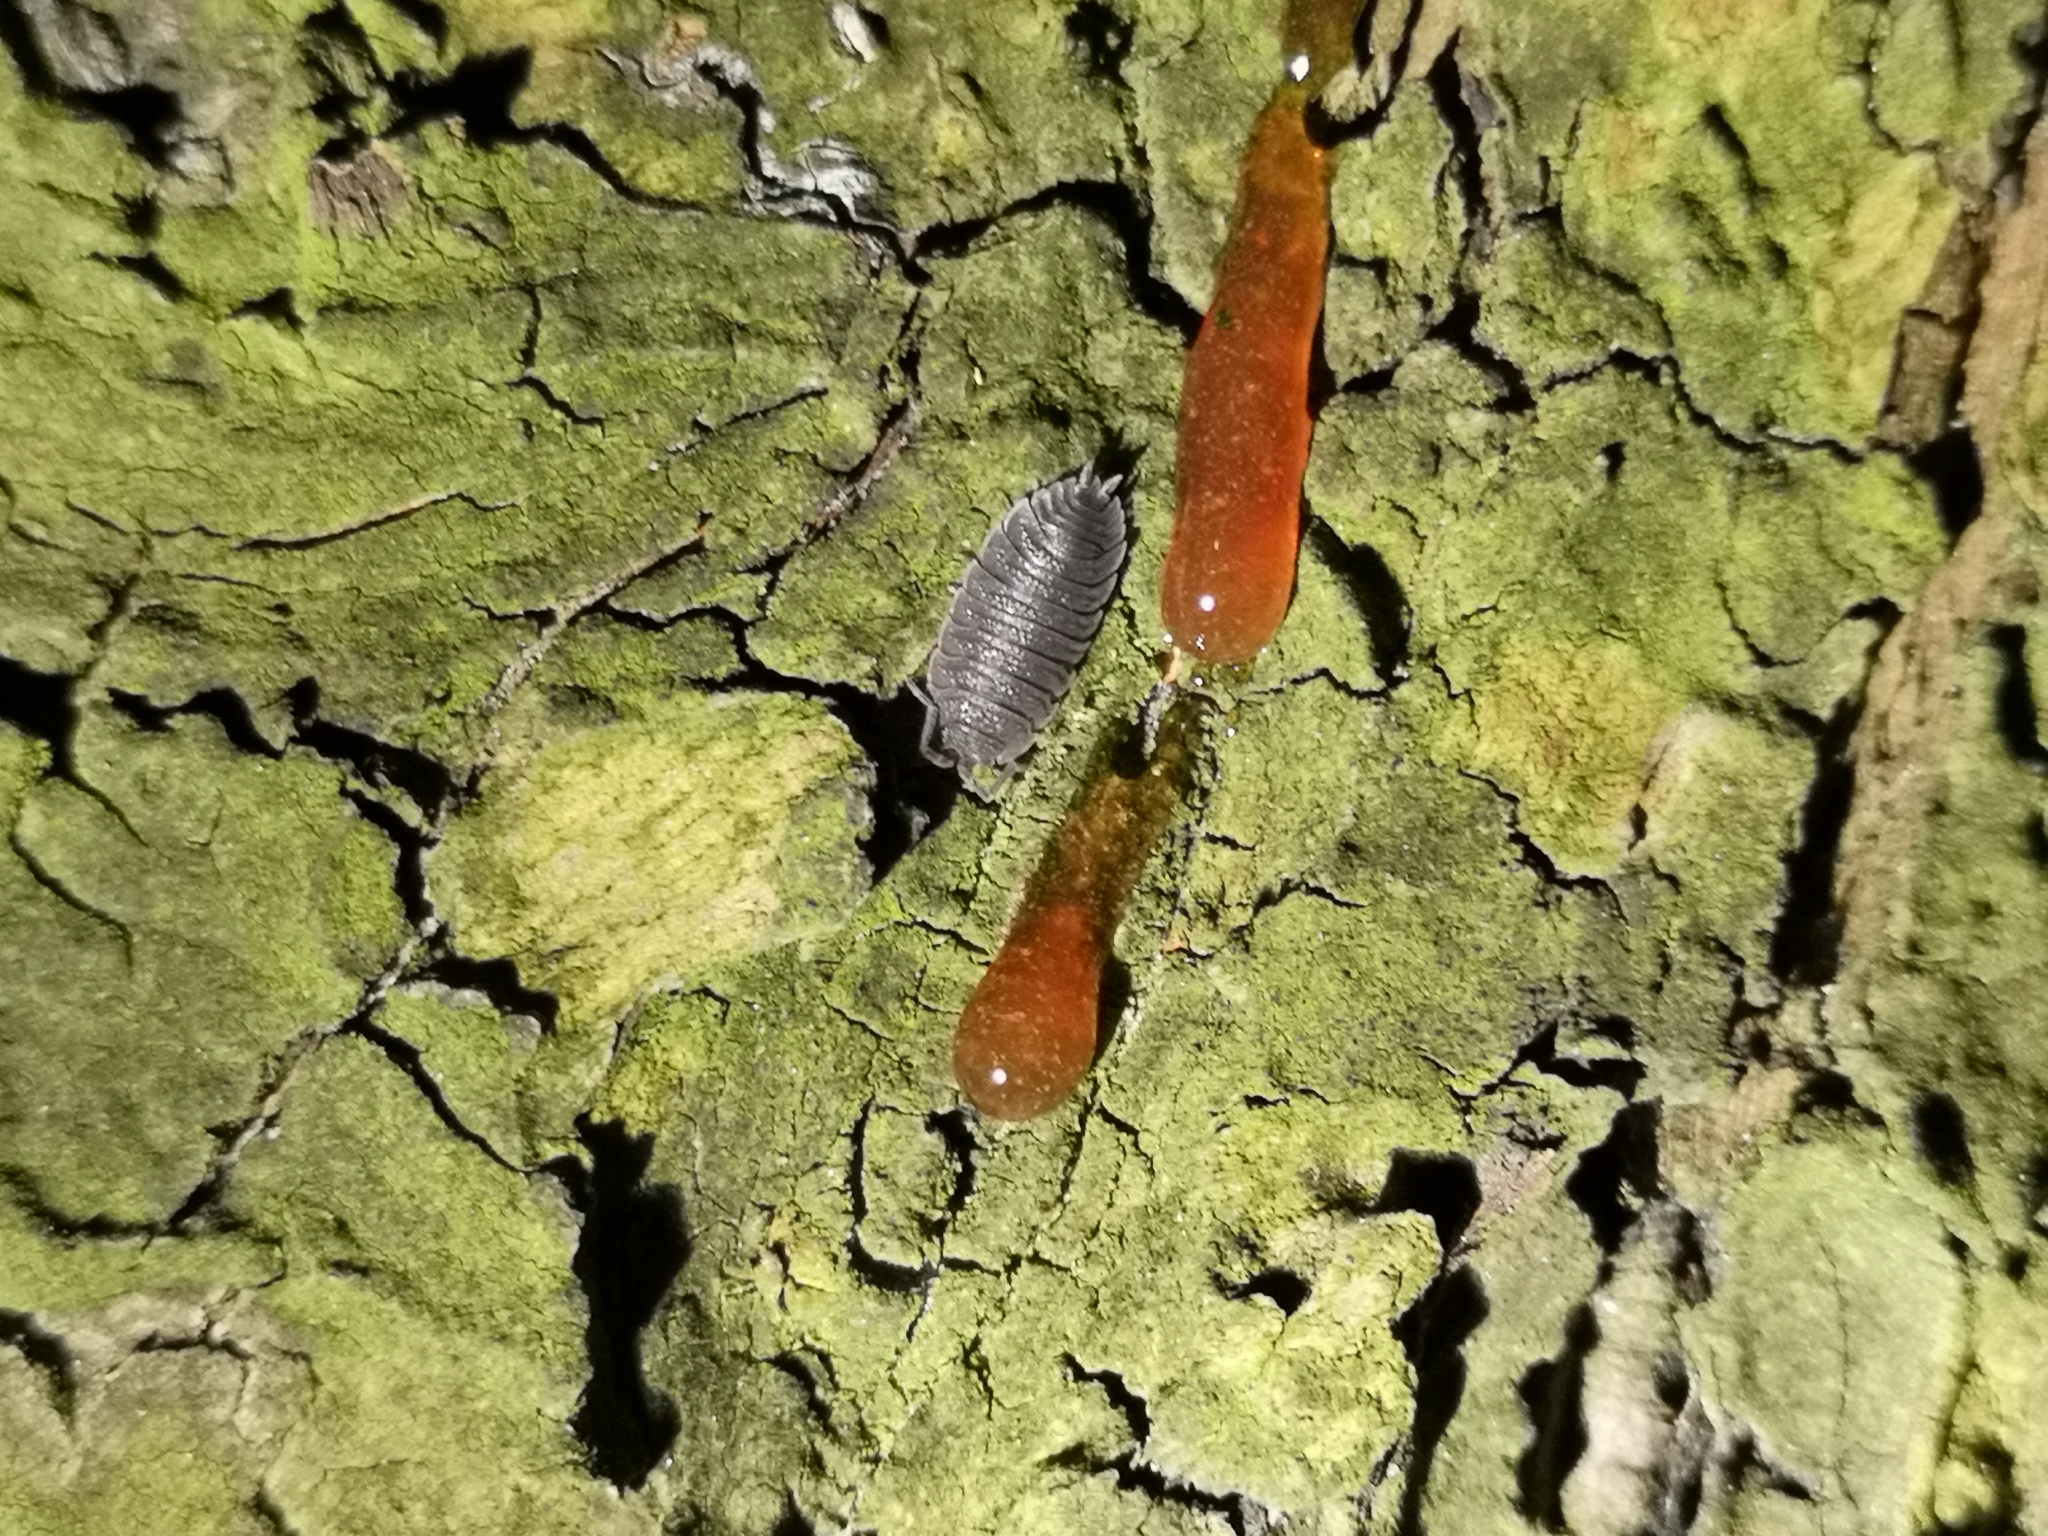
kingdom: Animalia
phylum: Arthropoda
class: Malacostraca
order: Isopoda
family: Porcellionidae
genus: Porcellio
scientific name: Porcellio scaber
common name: Common rough woodlouse
